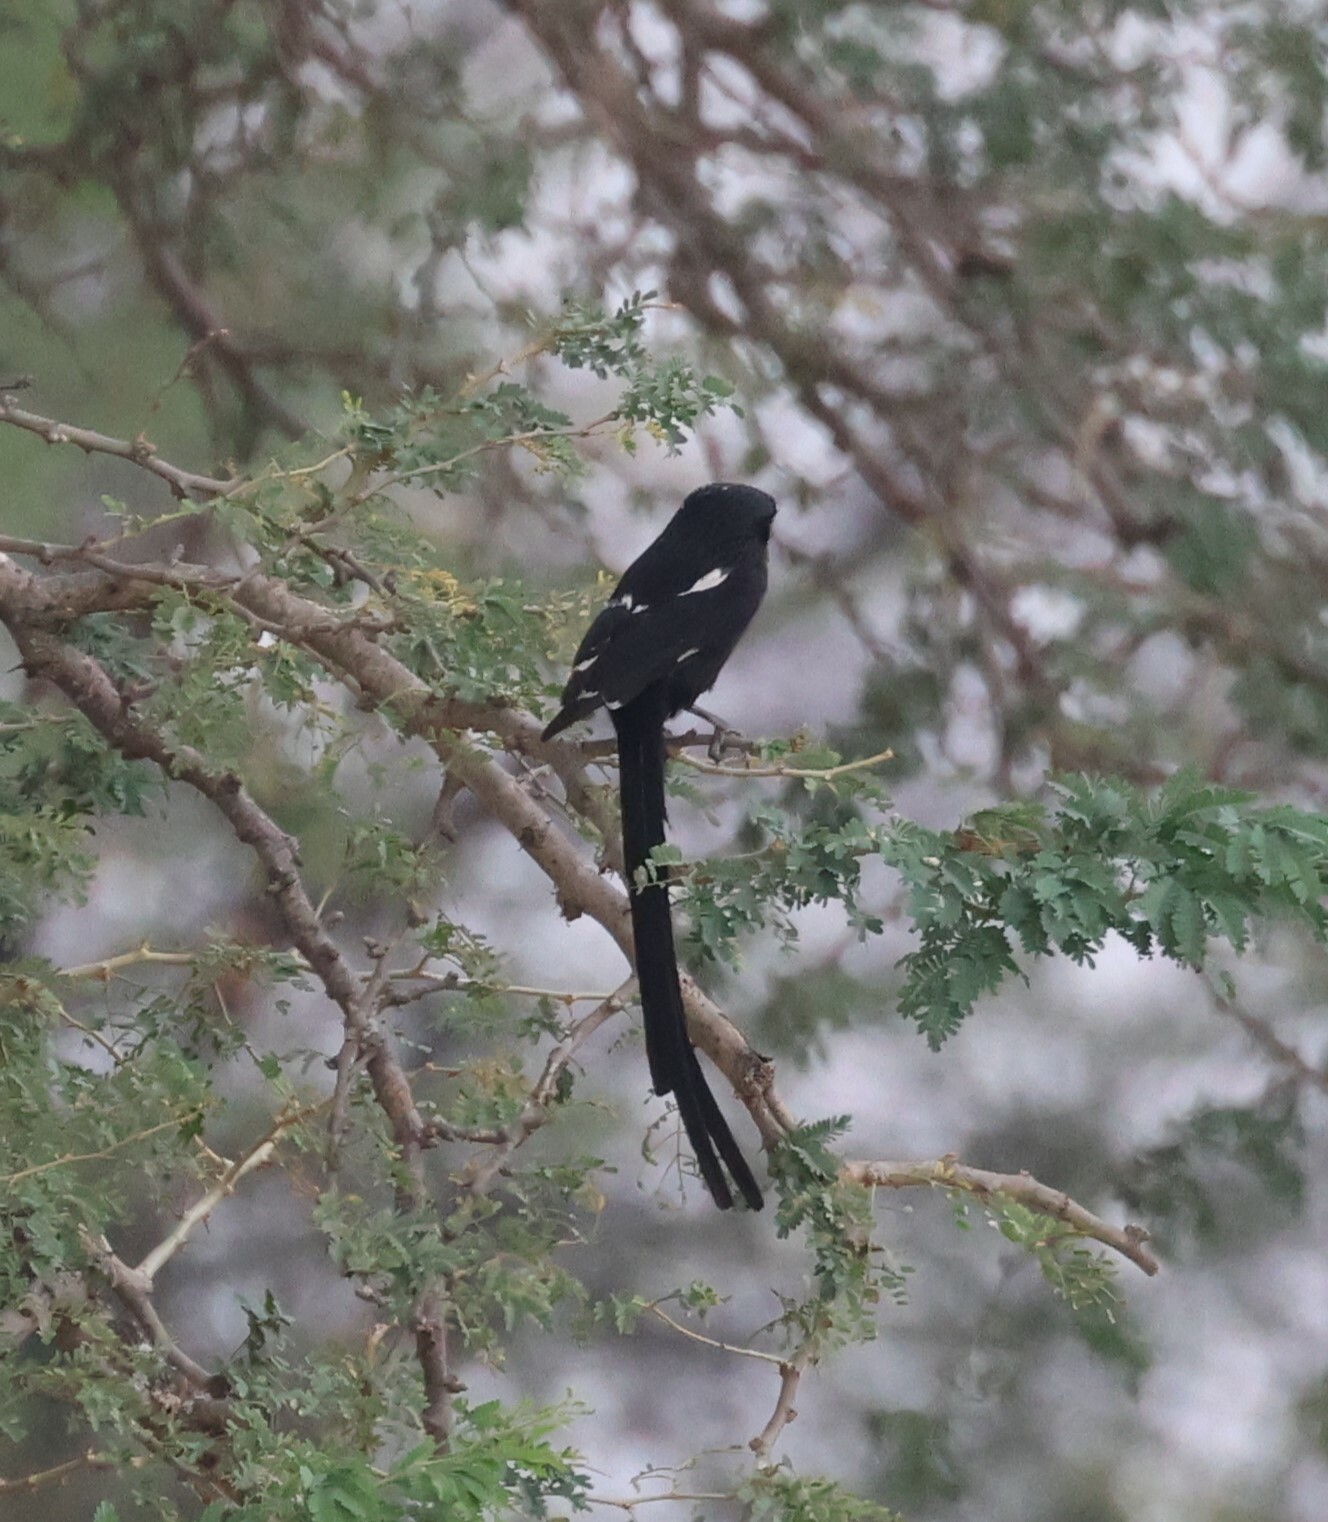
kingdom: Animalia
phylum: Chordata
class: Aves
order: Passeriformes
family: Laniidae
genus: Urolestes
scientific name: Urolestes melanoleucus
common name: Magpie shrike
